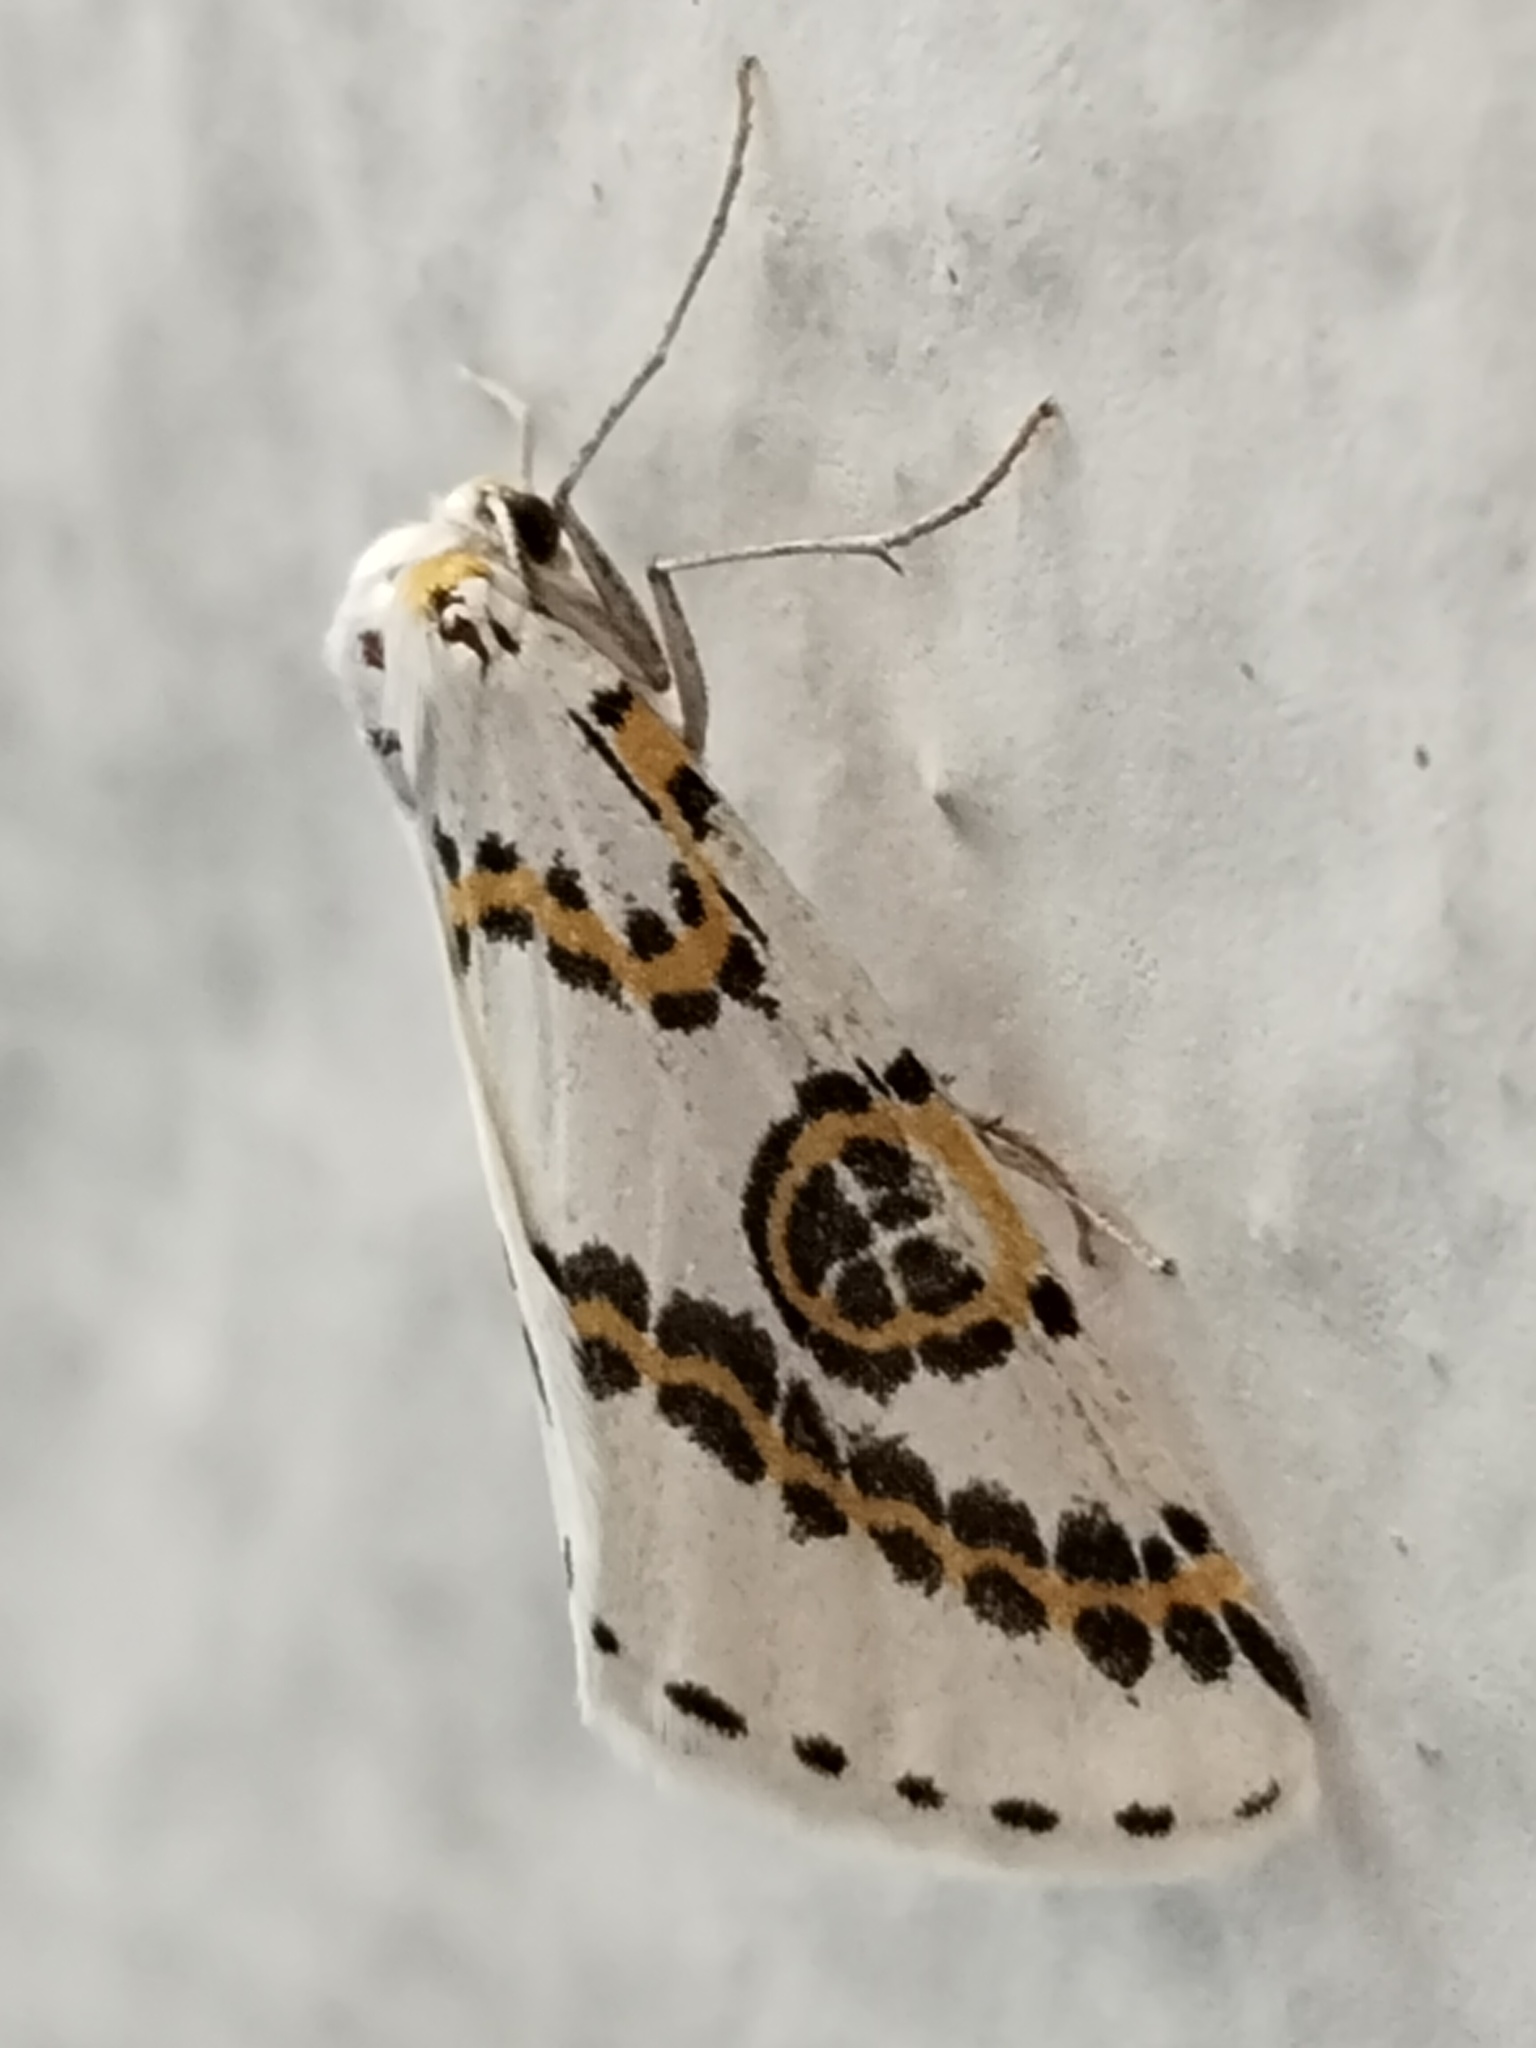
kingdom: Animalia
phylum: Arthropoda
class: Insecta
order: Lepidoptera
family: Geometridae
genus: Philtraea
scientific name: Philtraea mexicana
